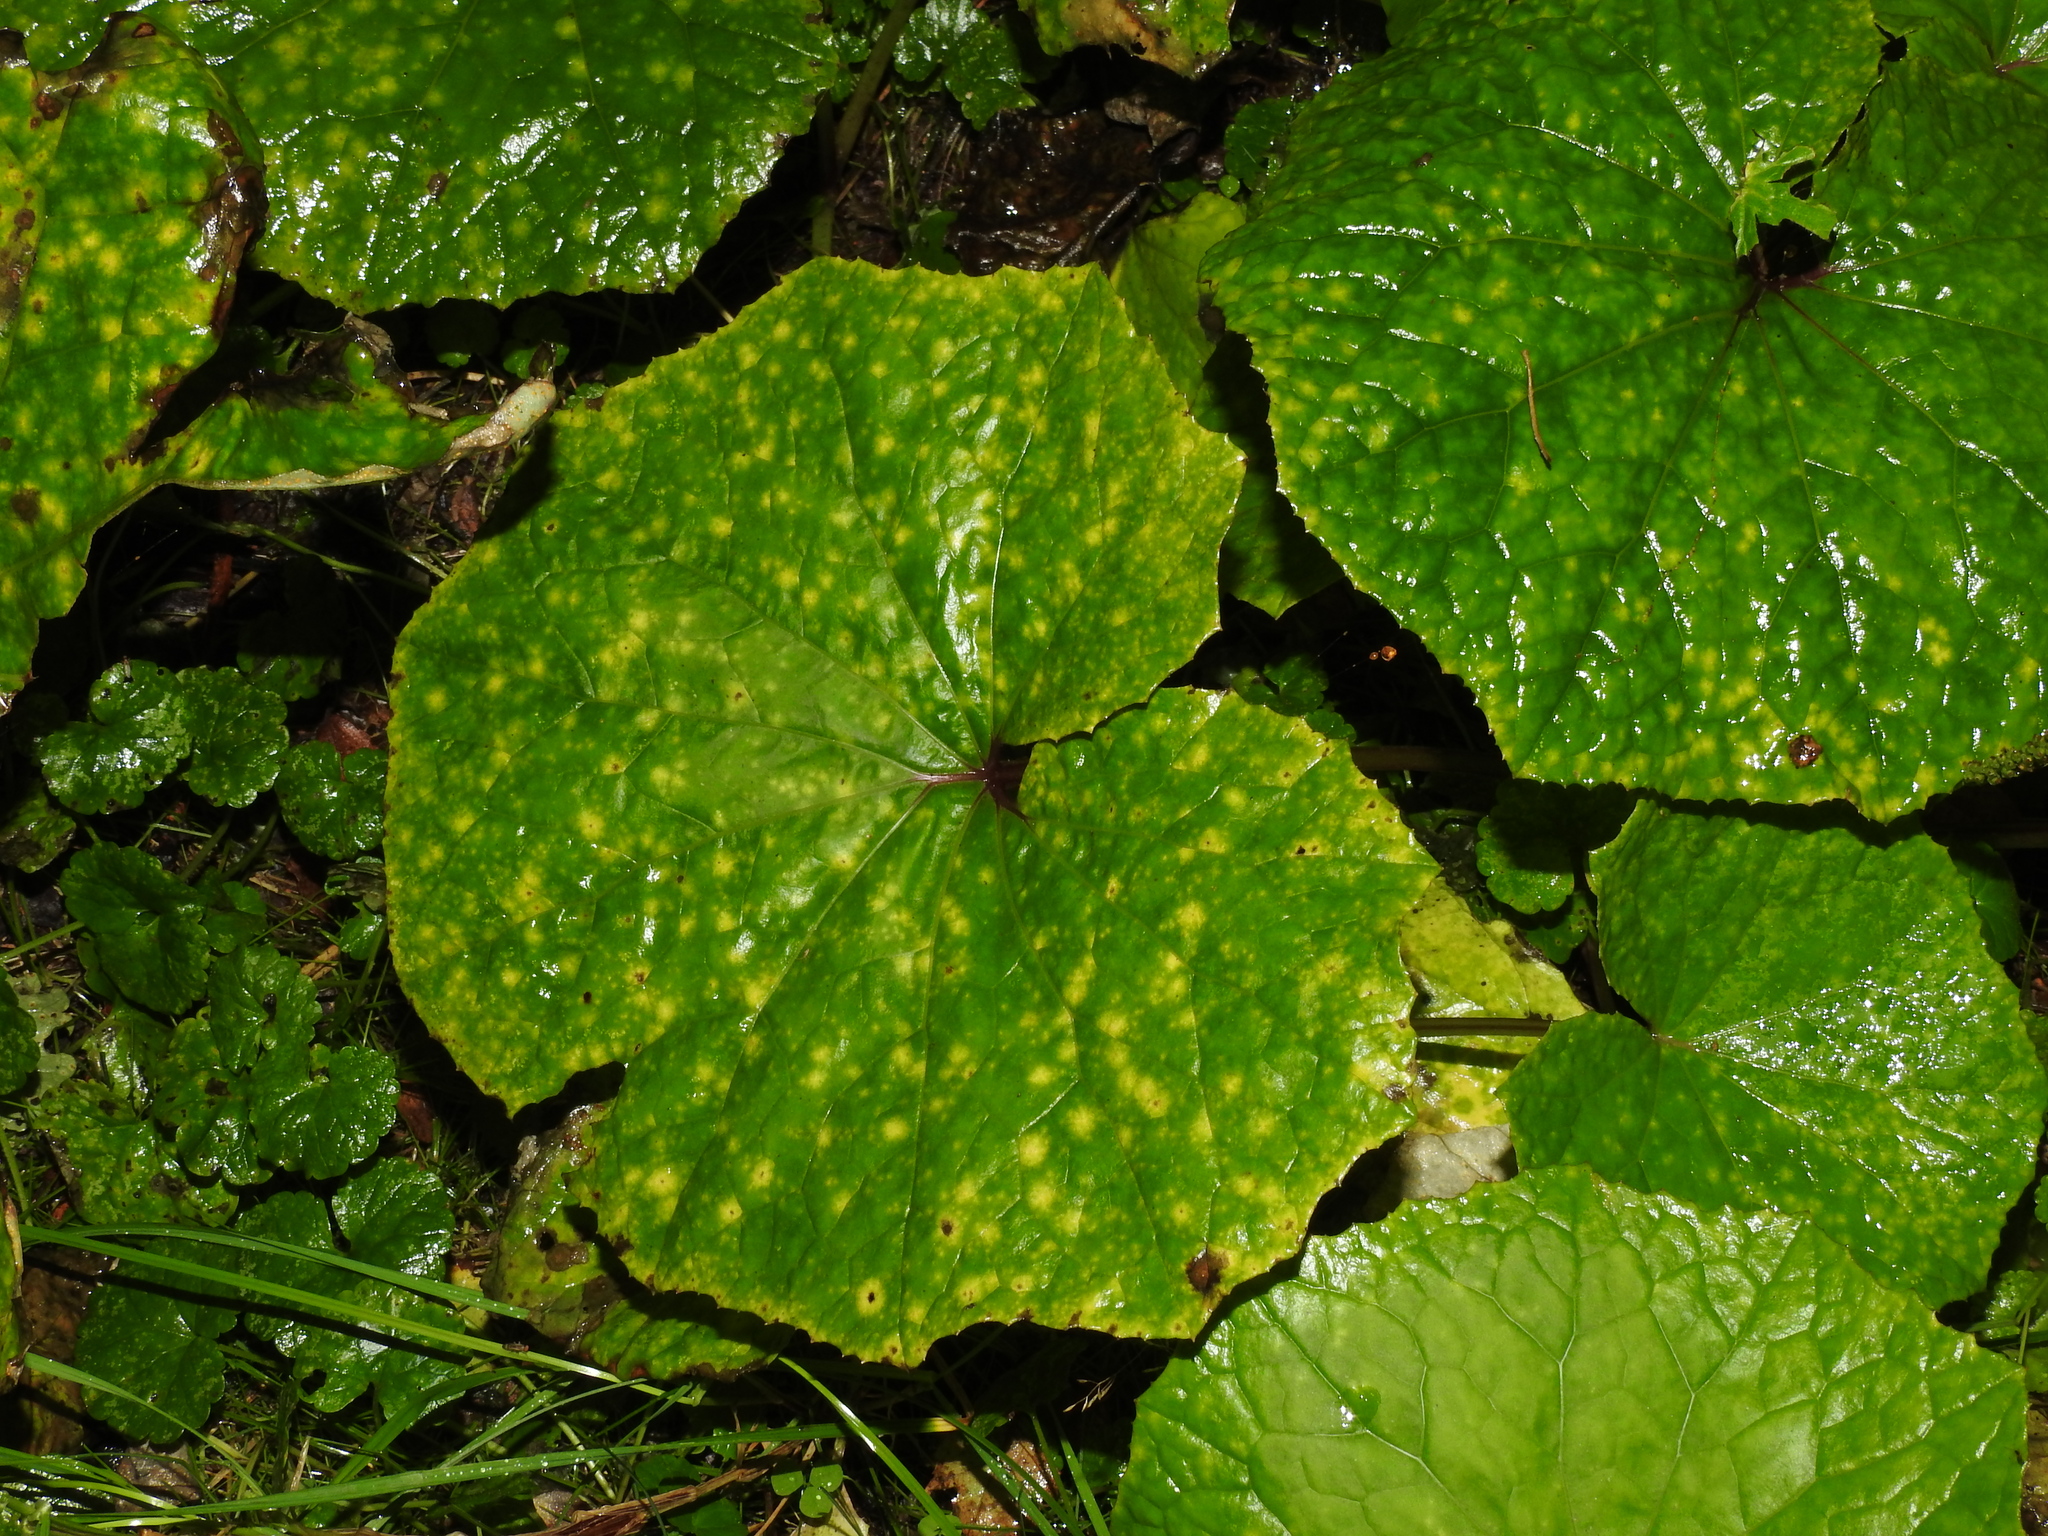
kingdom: Plantae
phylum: Tracheophyta
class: Magnoliopsida
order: Asterales
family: Asteraceae
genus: Tussilago
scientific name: Tussilago farfara
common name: Coltsfoot
